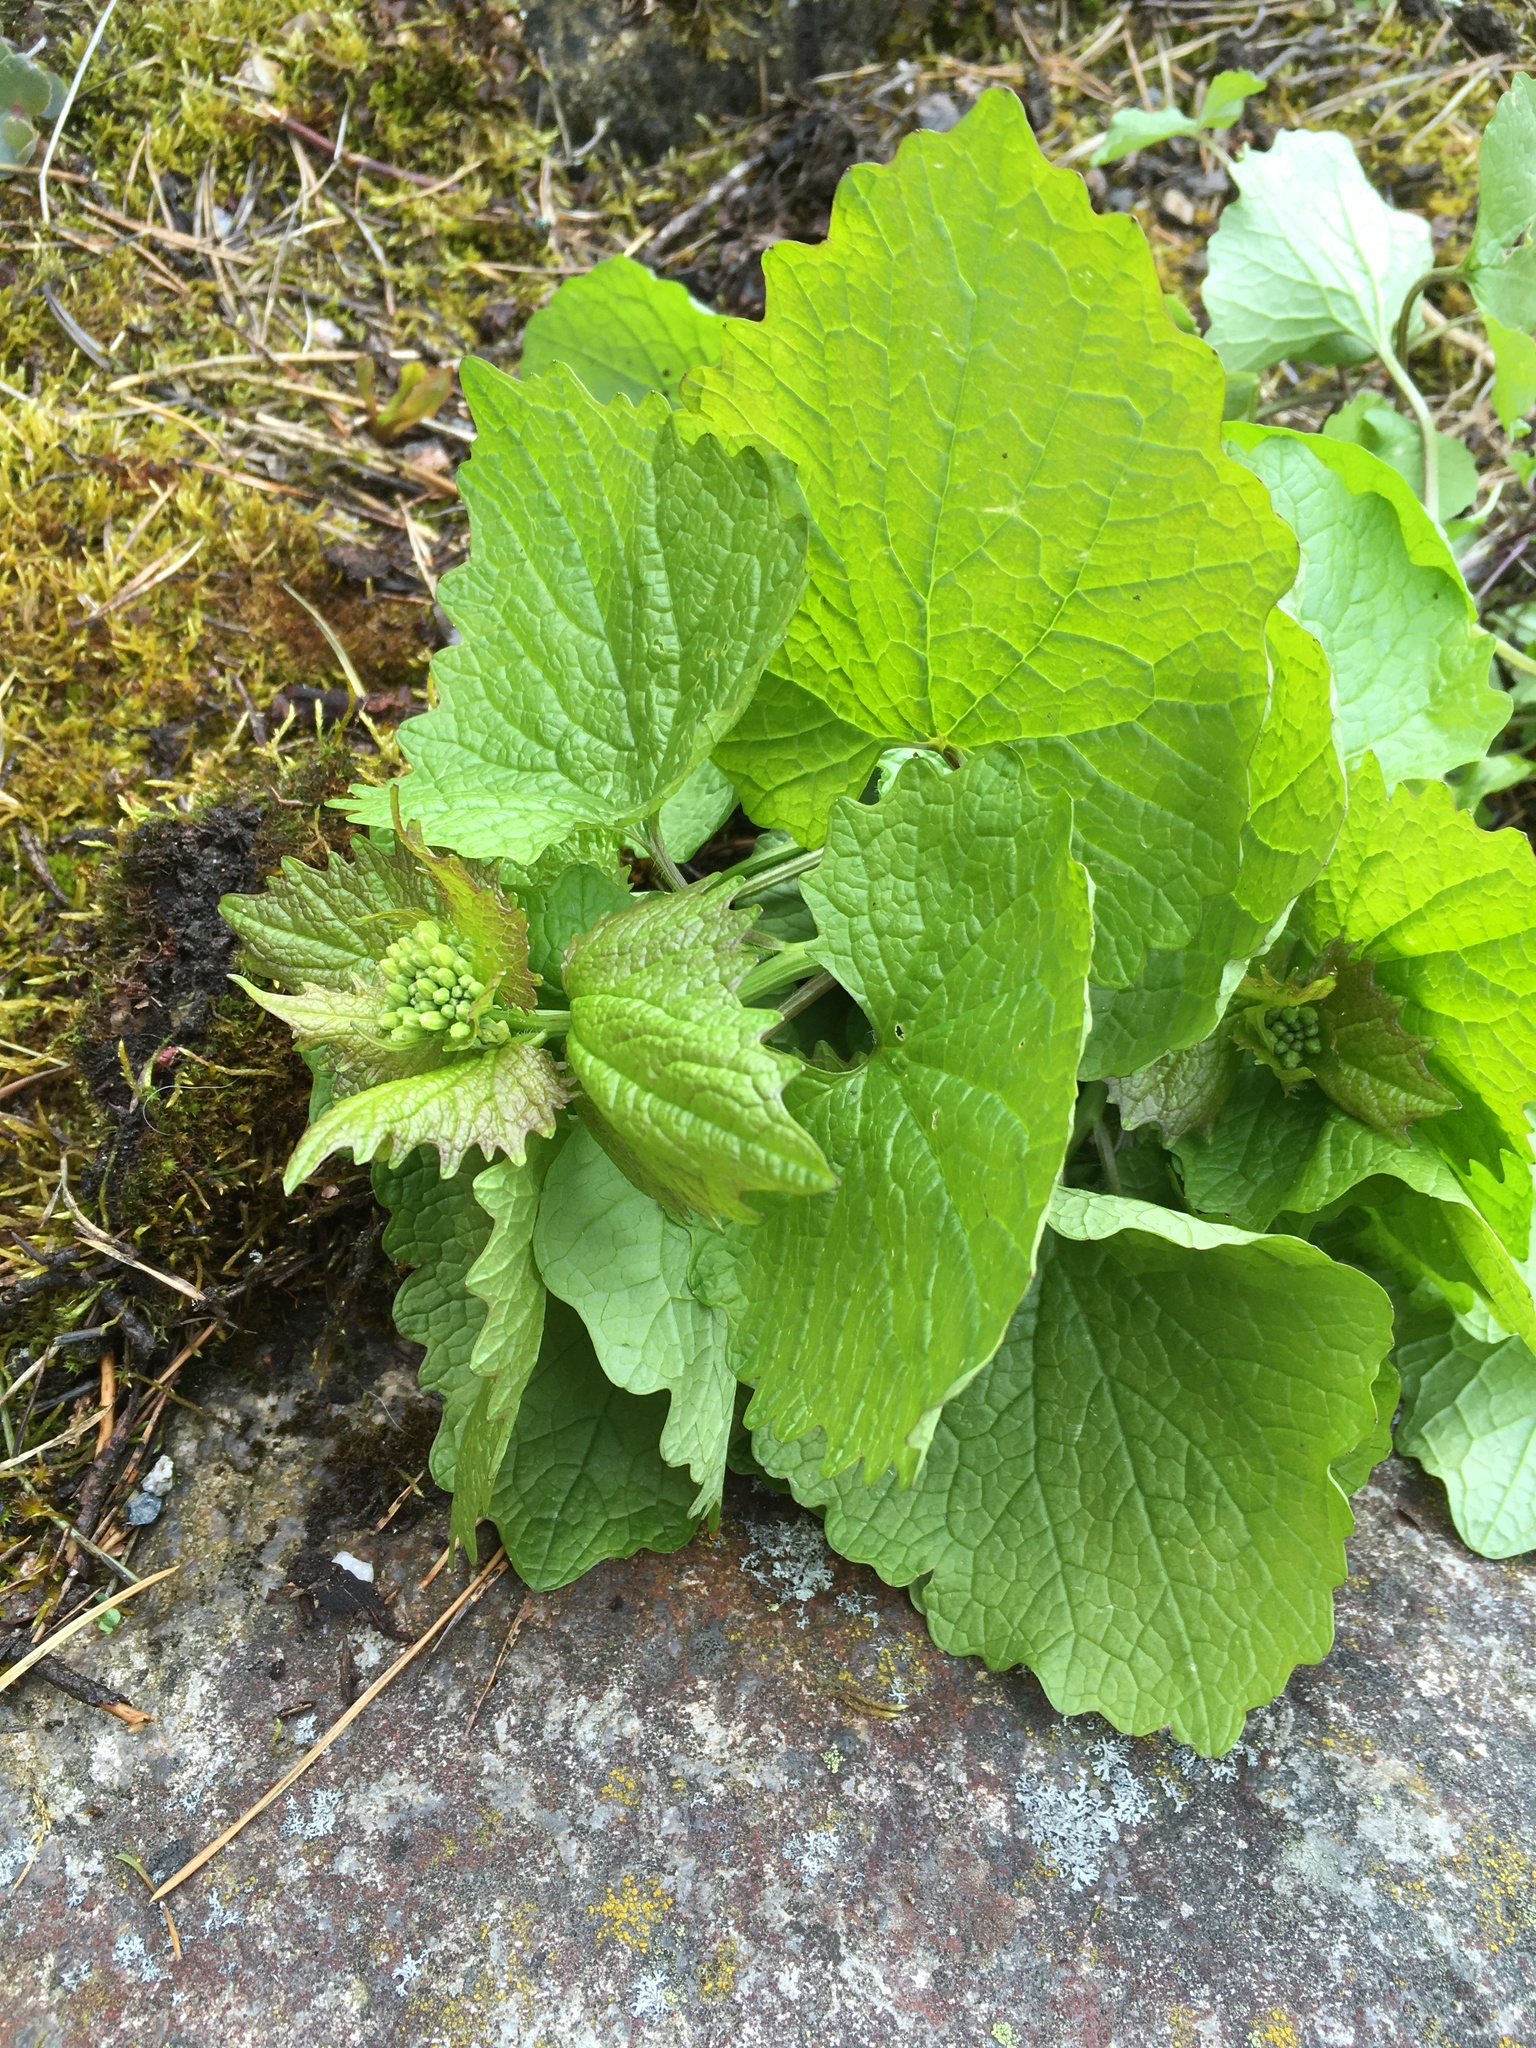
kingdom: Plantae
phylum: Tracheophyta
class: Magnoliopsida
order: Brassicales
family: Brassicaceae
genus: Alliaria
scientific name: Alliaria petiolata
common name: Garlic mustard
